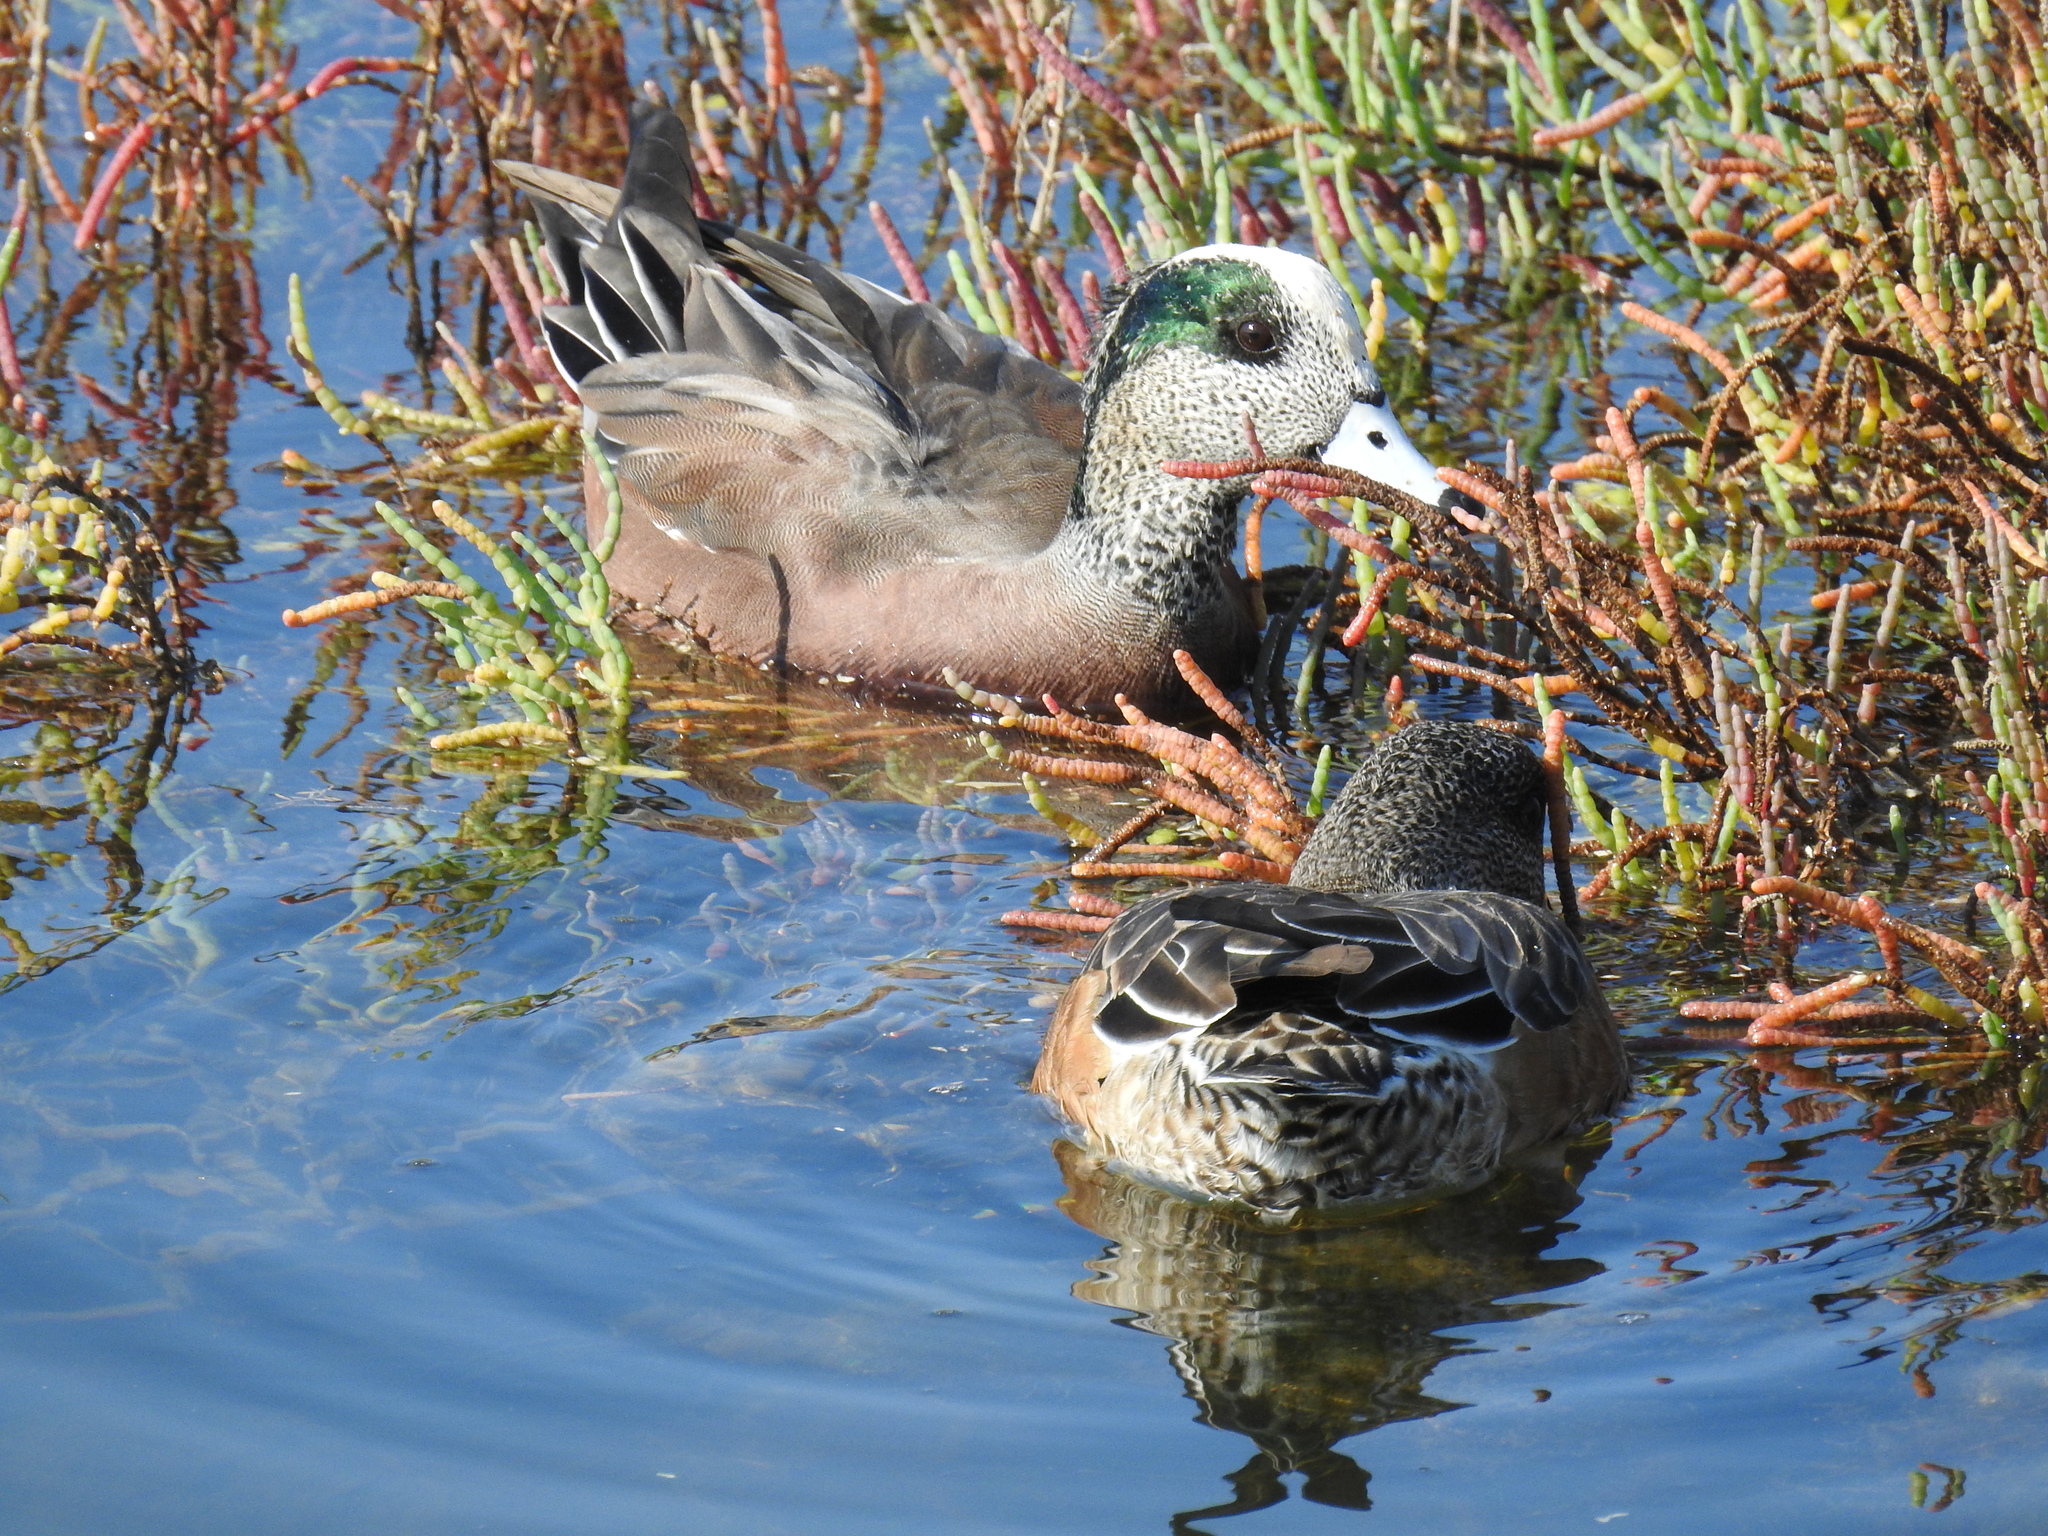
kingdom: Animalia
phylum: Chordata
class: Aves
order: Anseriformes
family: Anatidae
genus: Mareca
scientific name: Mareca americana
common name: American wigeon
